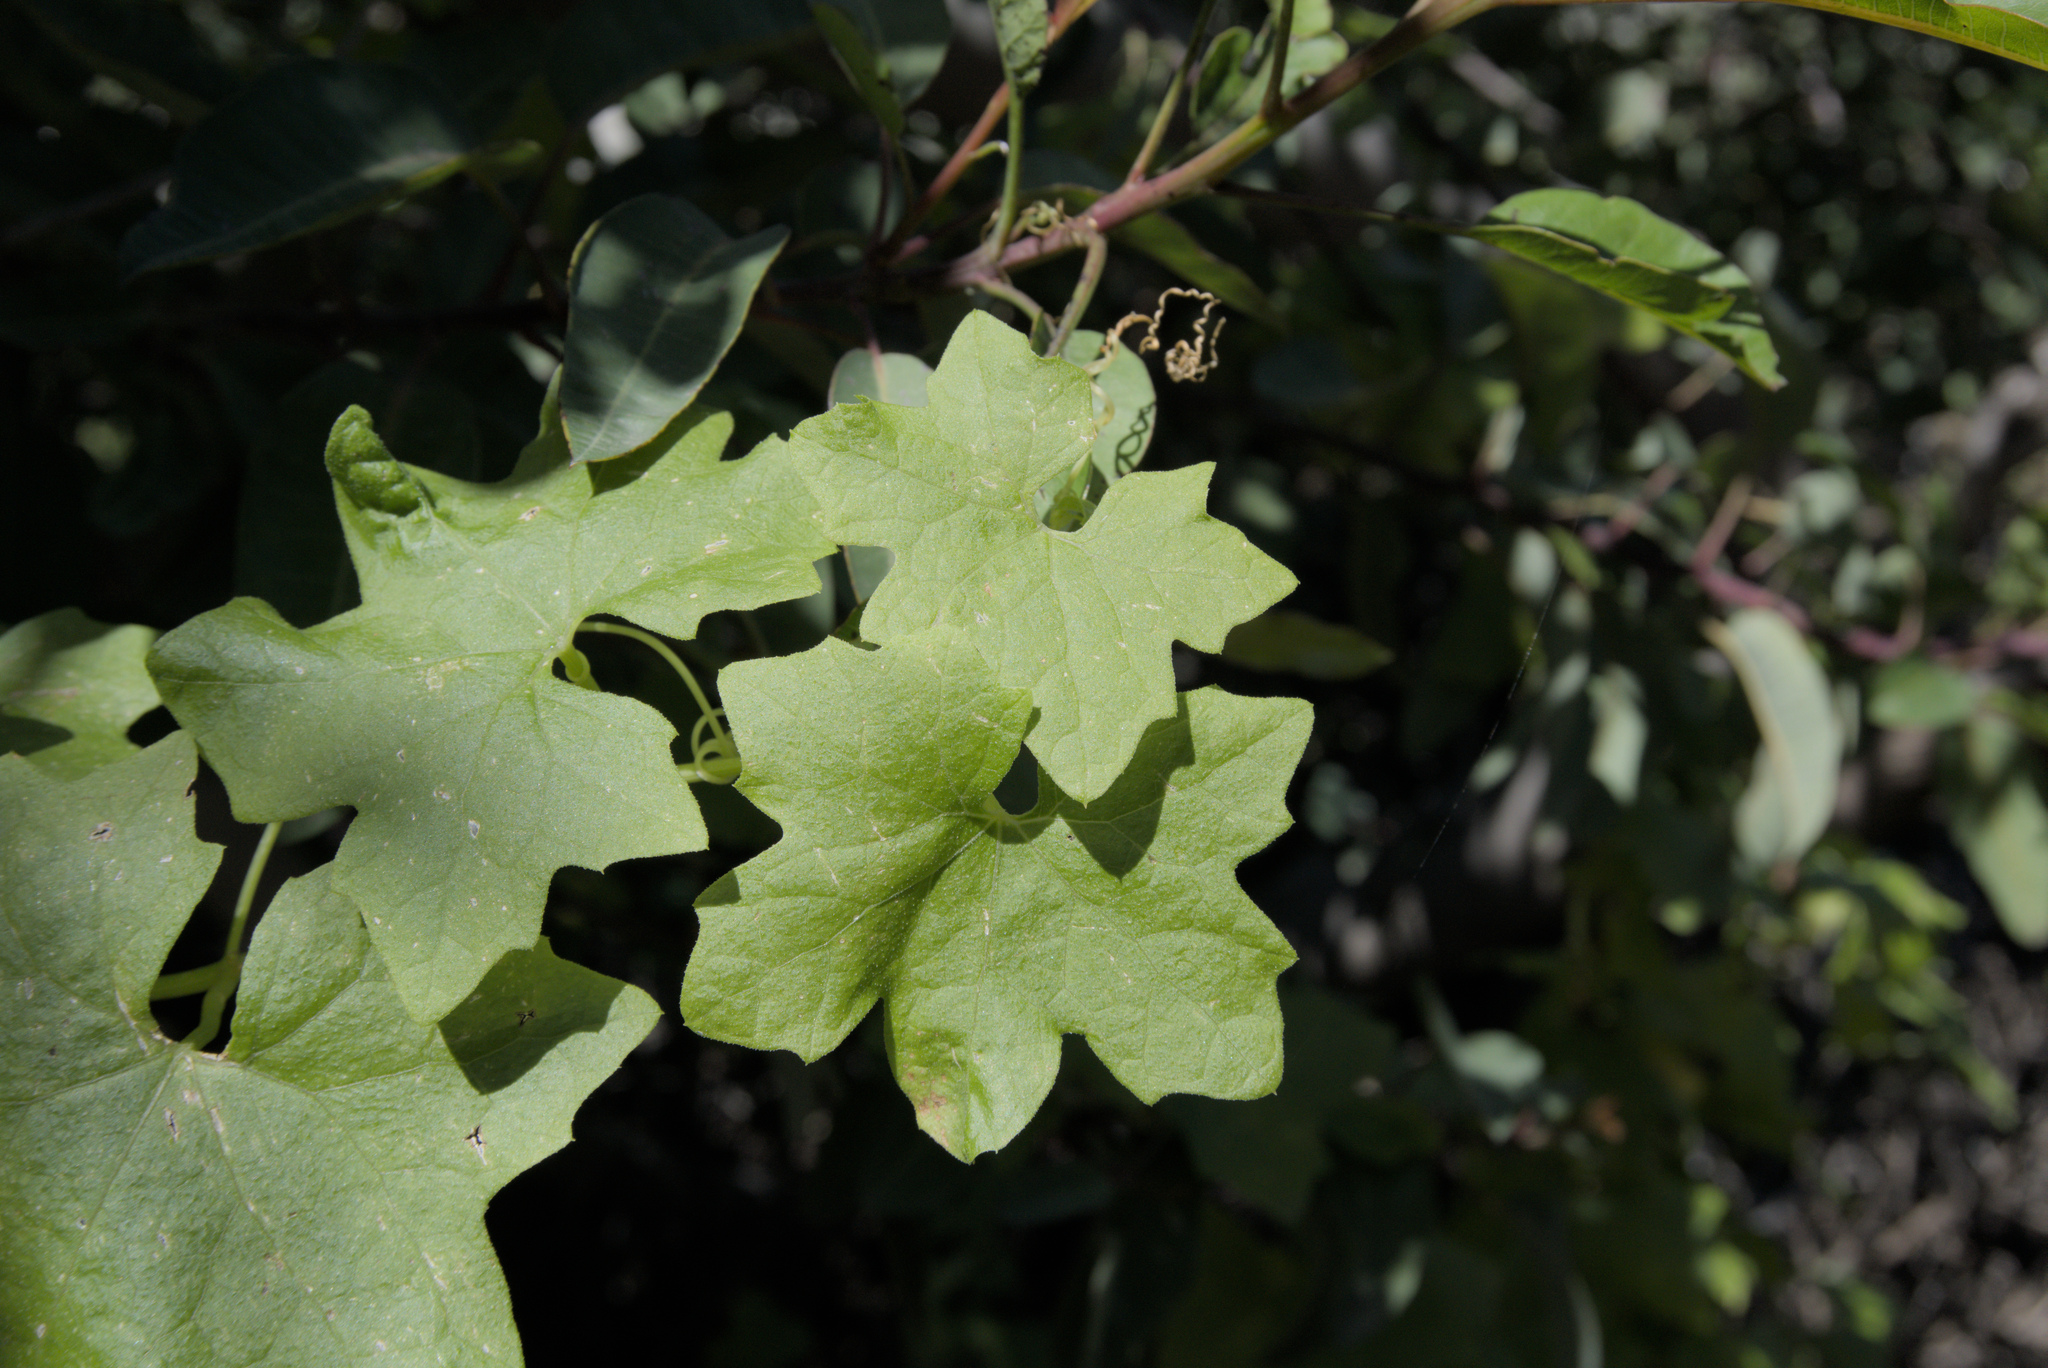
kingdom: Plantae
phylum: Tracheophyta
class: Magnoliopsida
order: Cucurbitales
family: Cucurbitaceae
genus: Marah
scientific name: Marah macrocarpa
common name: Cucamonga manroot
